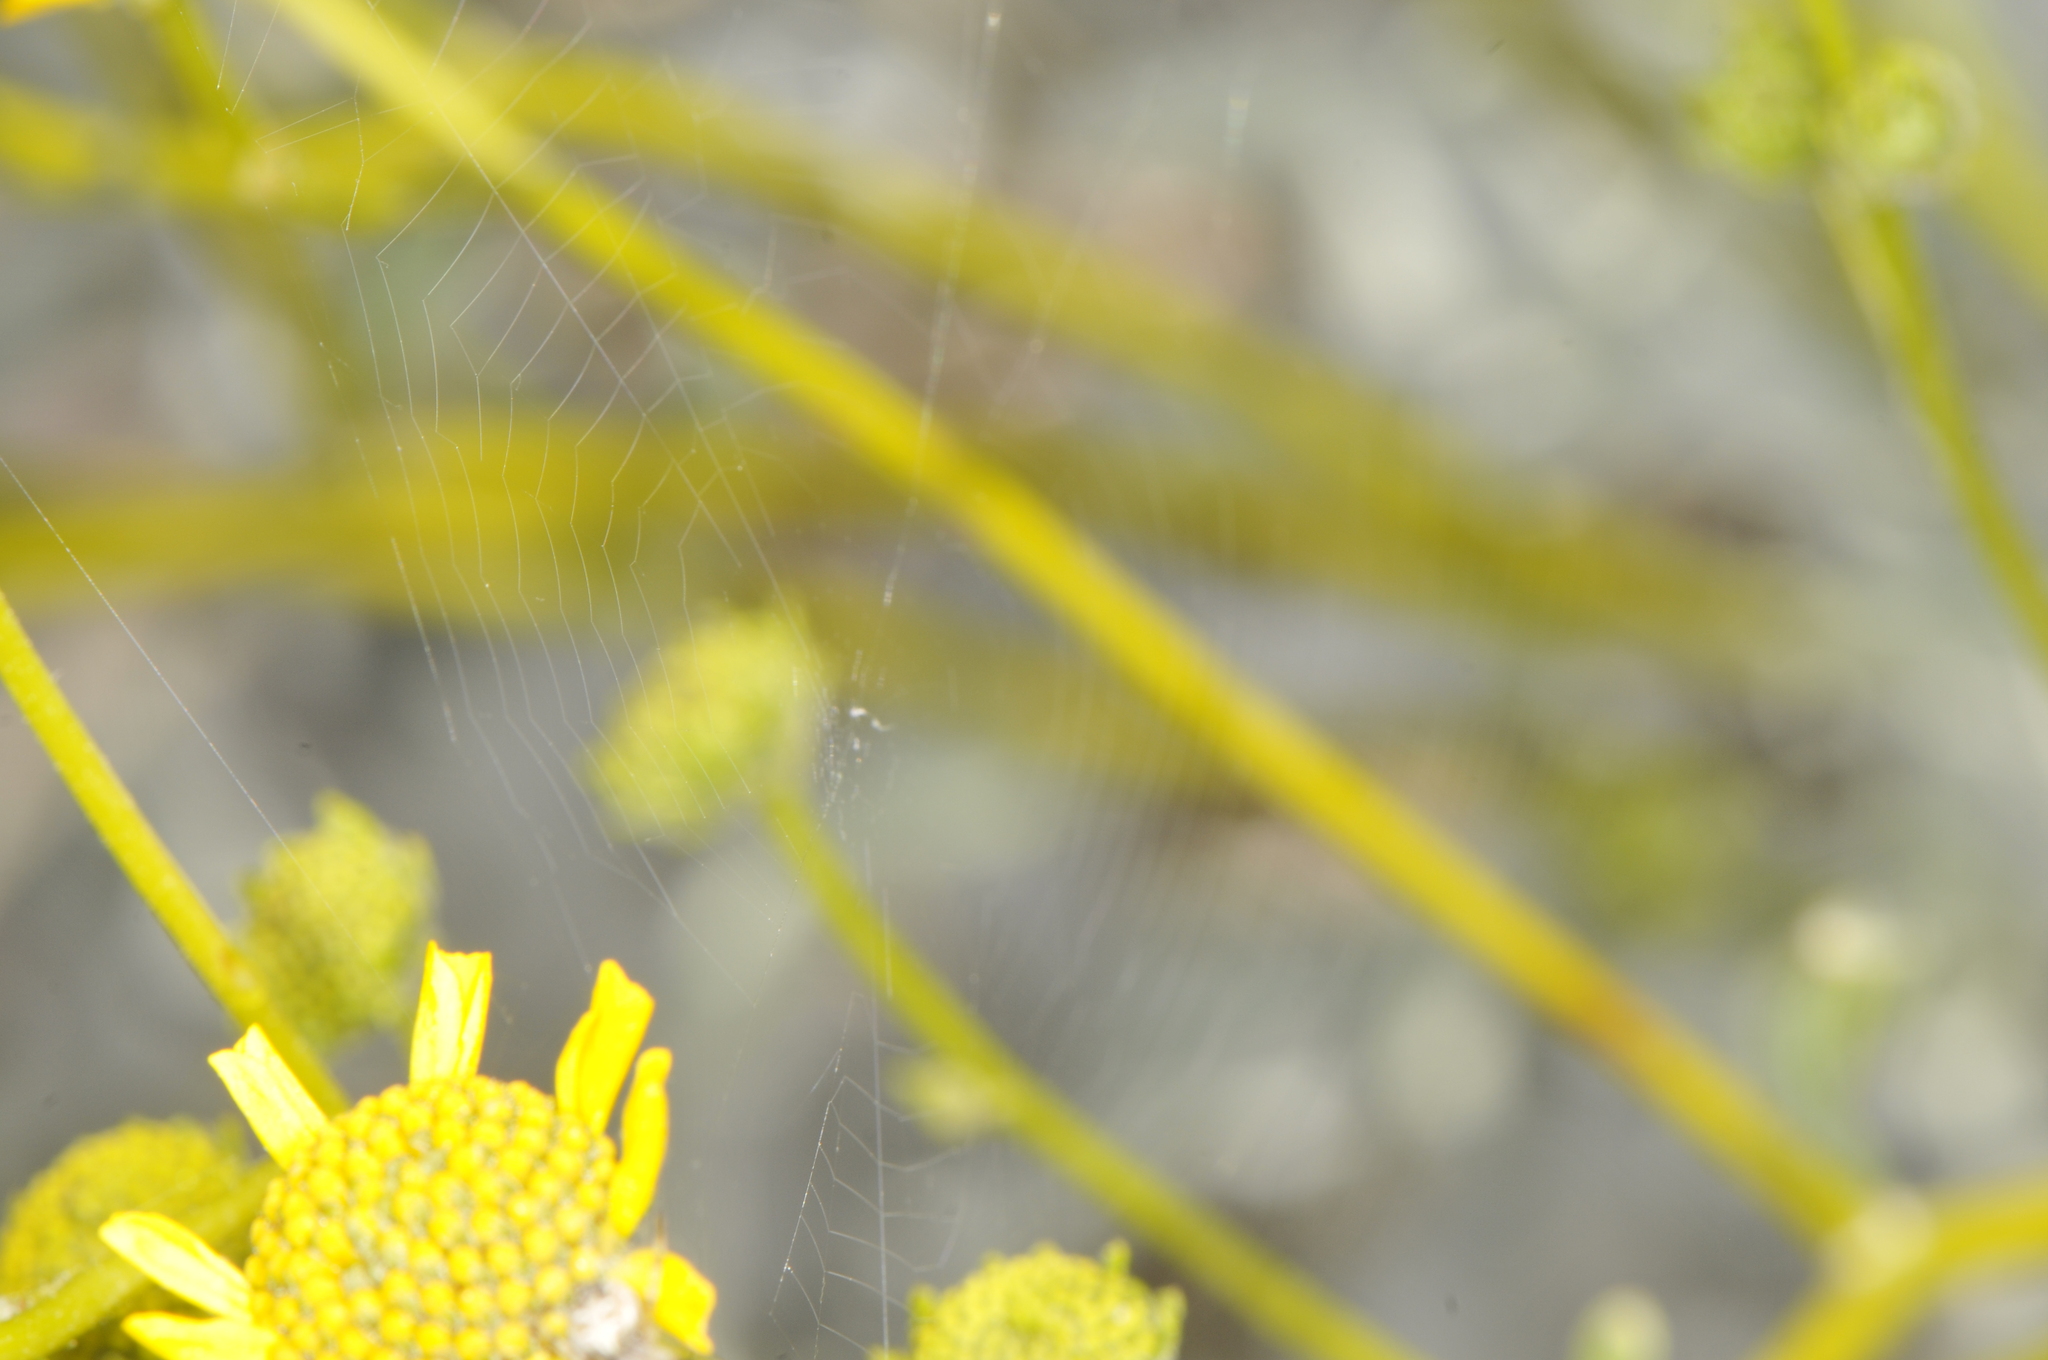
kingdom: Animalia
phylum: Arthropoda
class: Arachnida
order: Araneae
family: Araneidae
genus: Metepeira
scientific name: Metepeira
